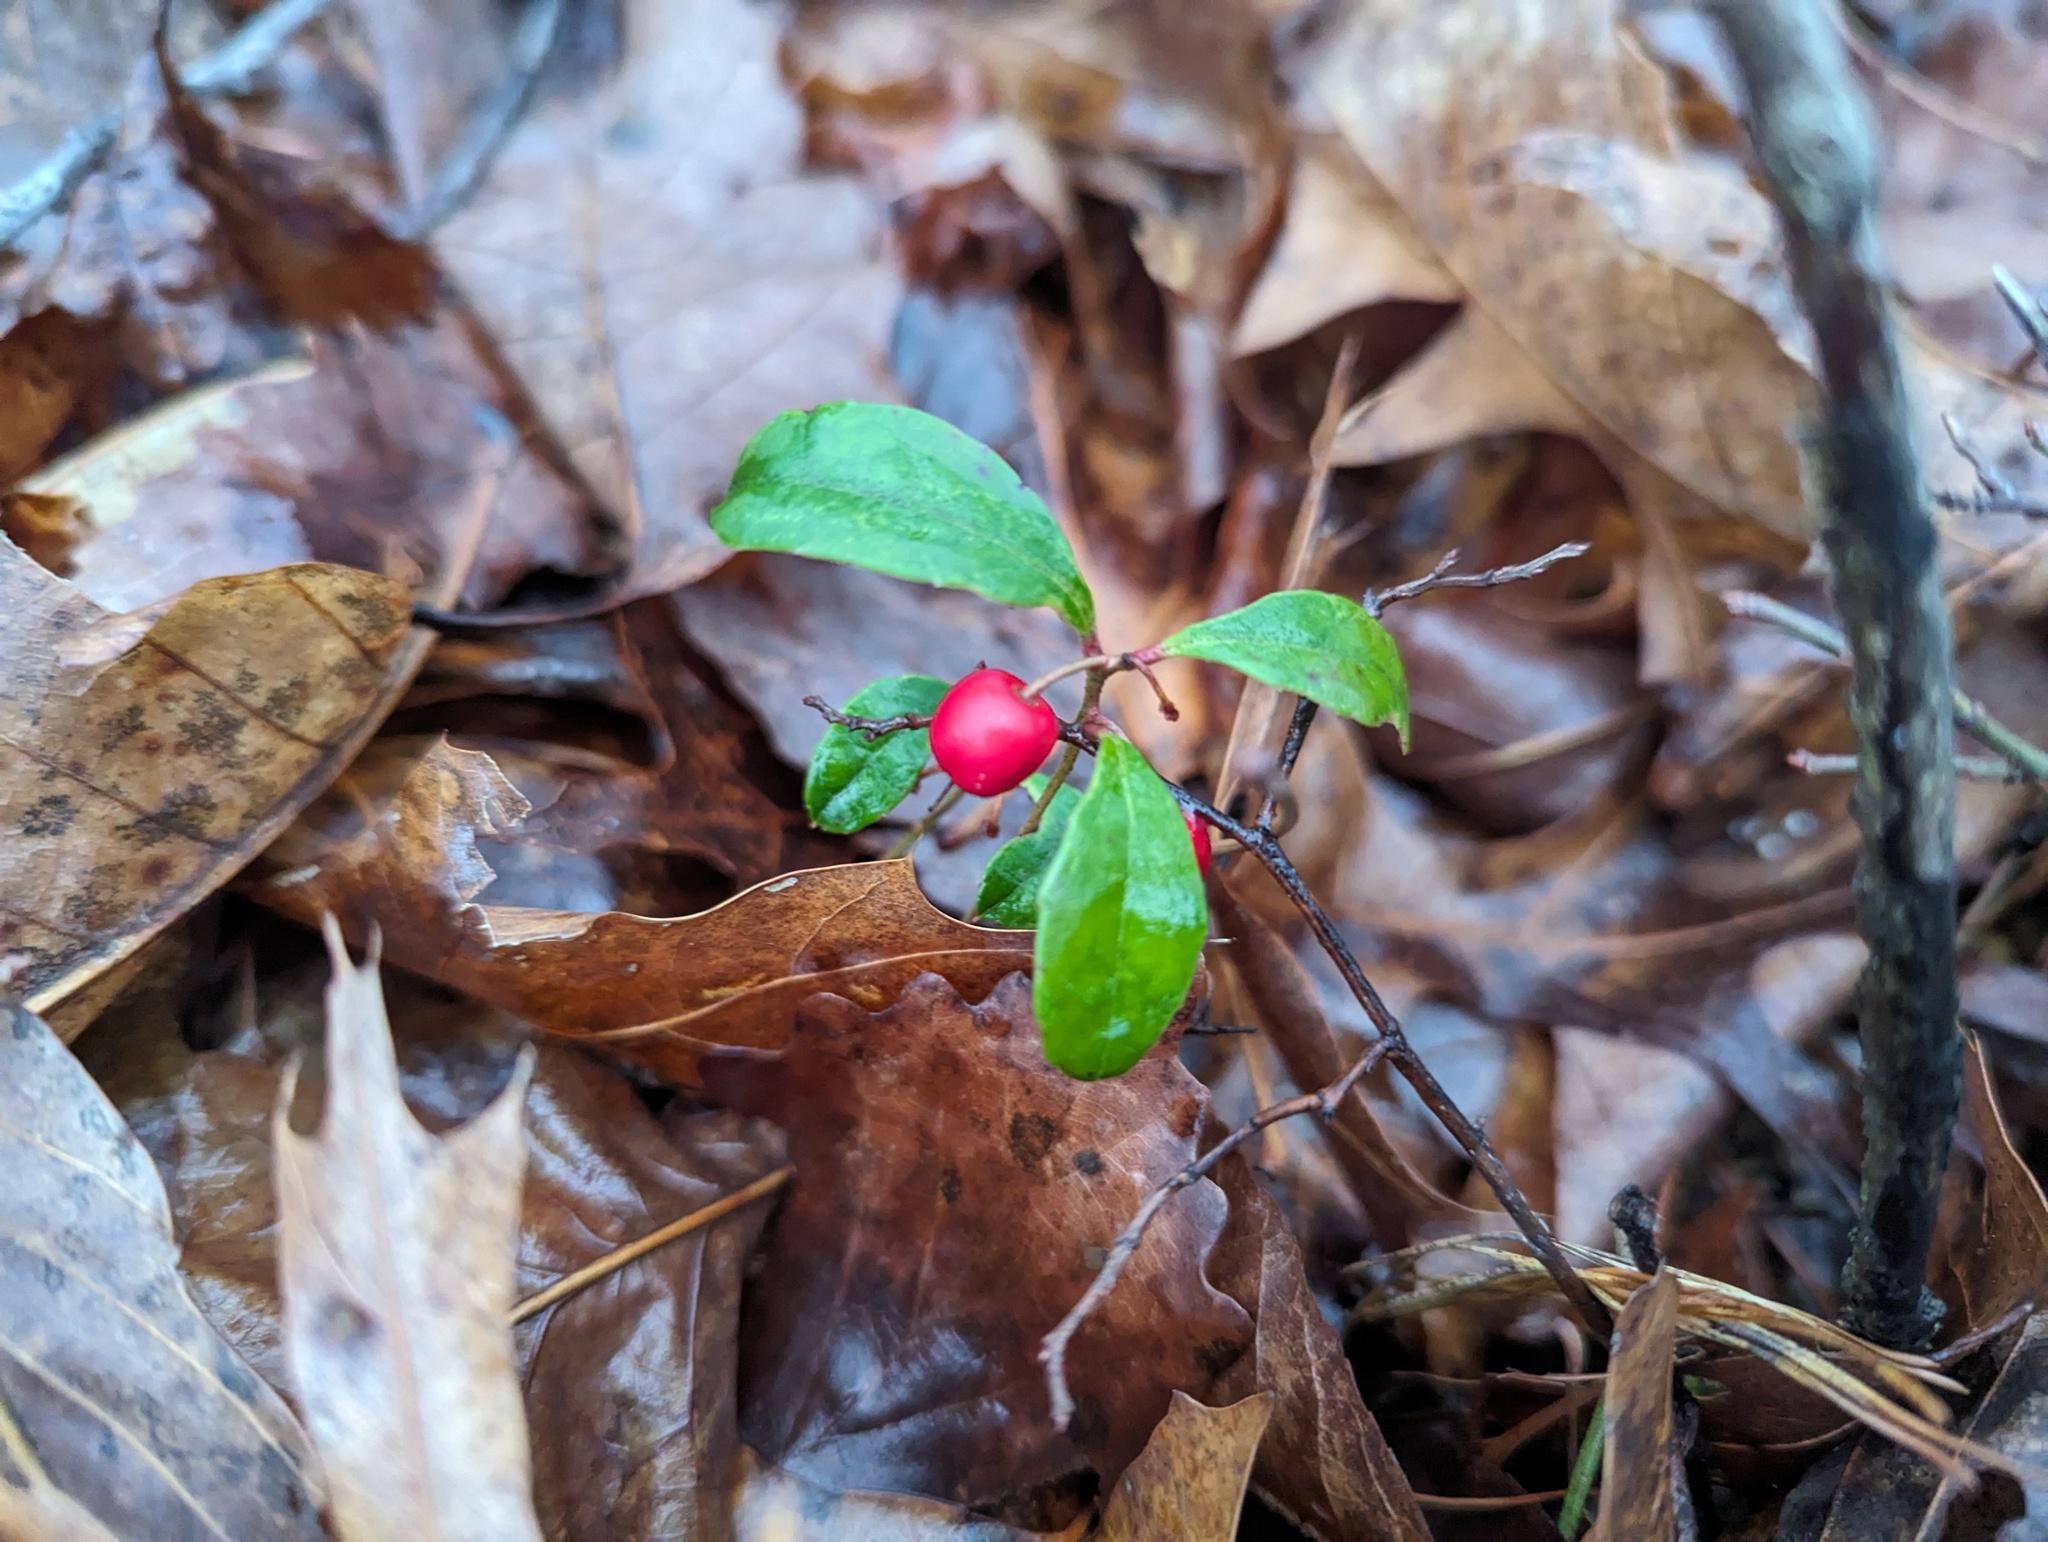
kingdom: Plantae
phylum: Tracheophyta
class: Magnoliopsida
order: Ericales
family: Ericaceae
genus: Gaultheria
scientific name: Gaultheria procumbens
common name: Checkerberry
